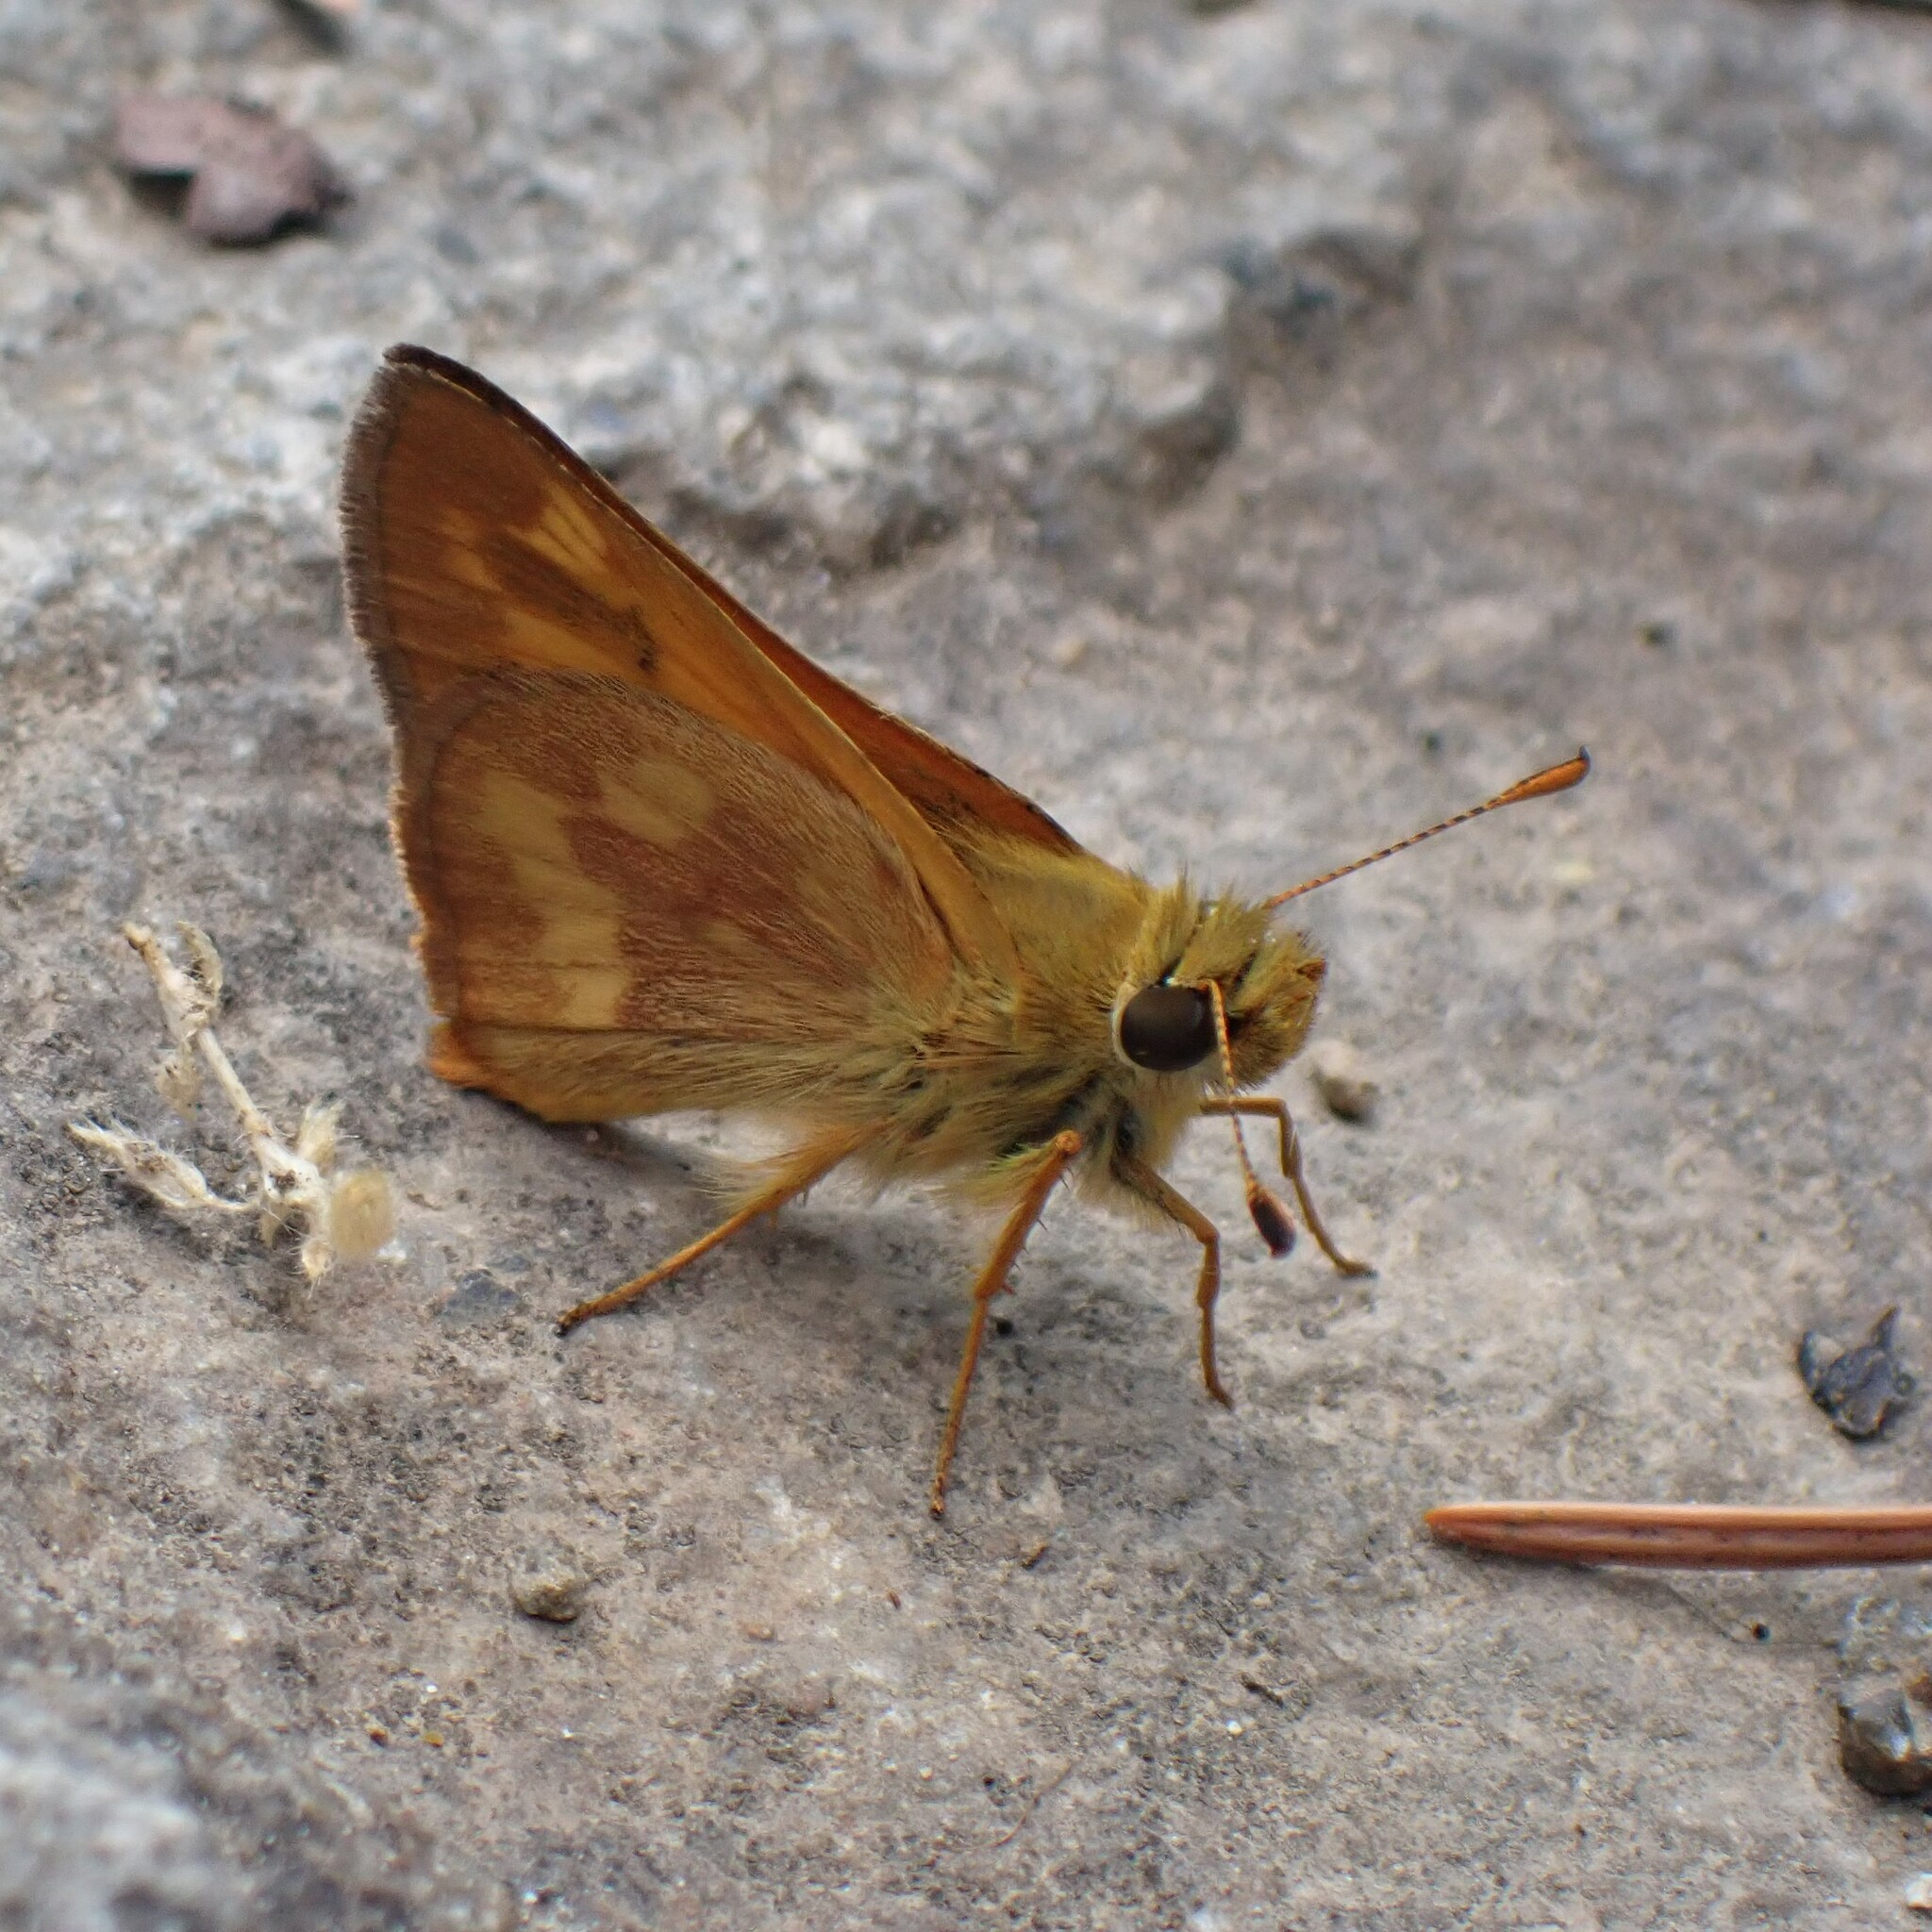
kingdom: Animalia
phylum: Arthropoda
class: Insecta
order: Lepidoptera
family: Hesperiidae
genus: Ochlodes
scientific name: Ochlodes sylvanoides
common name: Woodland skipper
